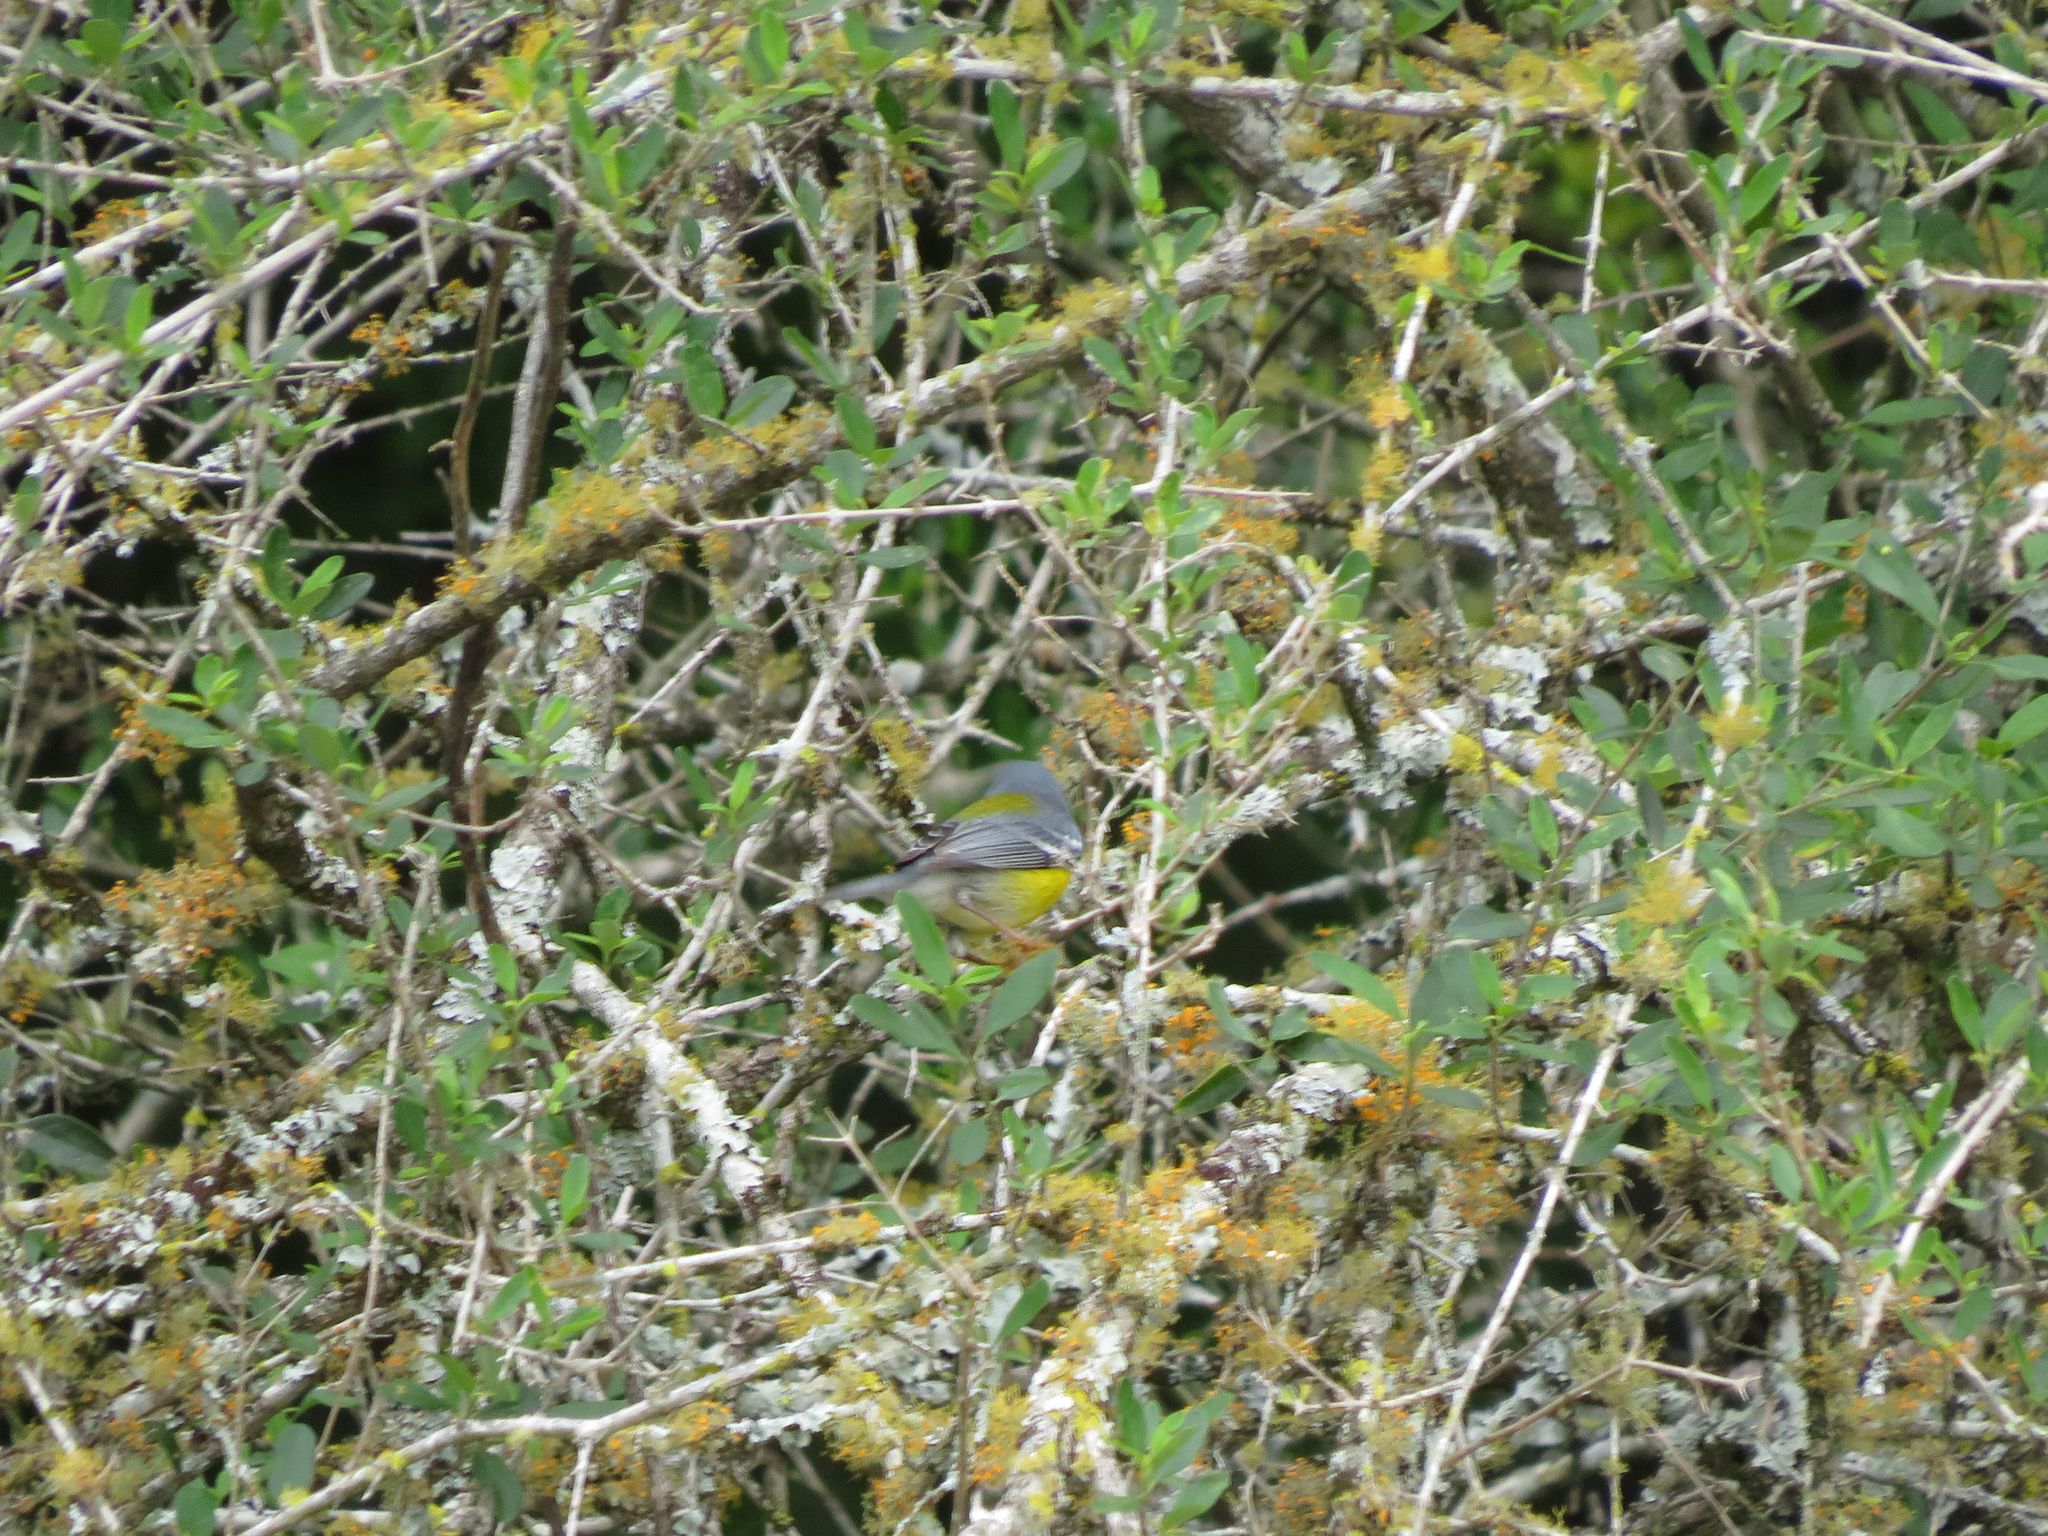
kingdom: Animalia
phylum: Chordata
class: Aves
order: Passeriformes
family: Parulidae
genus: Setophaga
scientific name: Setophaga pitiayumi
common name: Tropical parula
